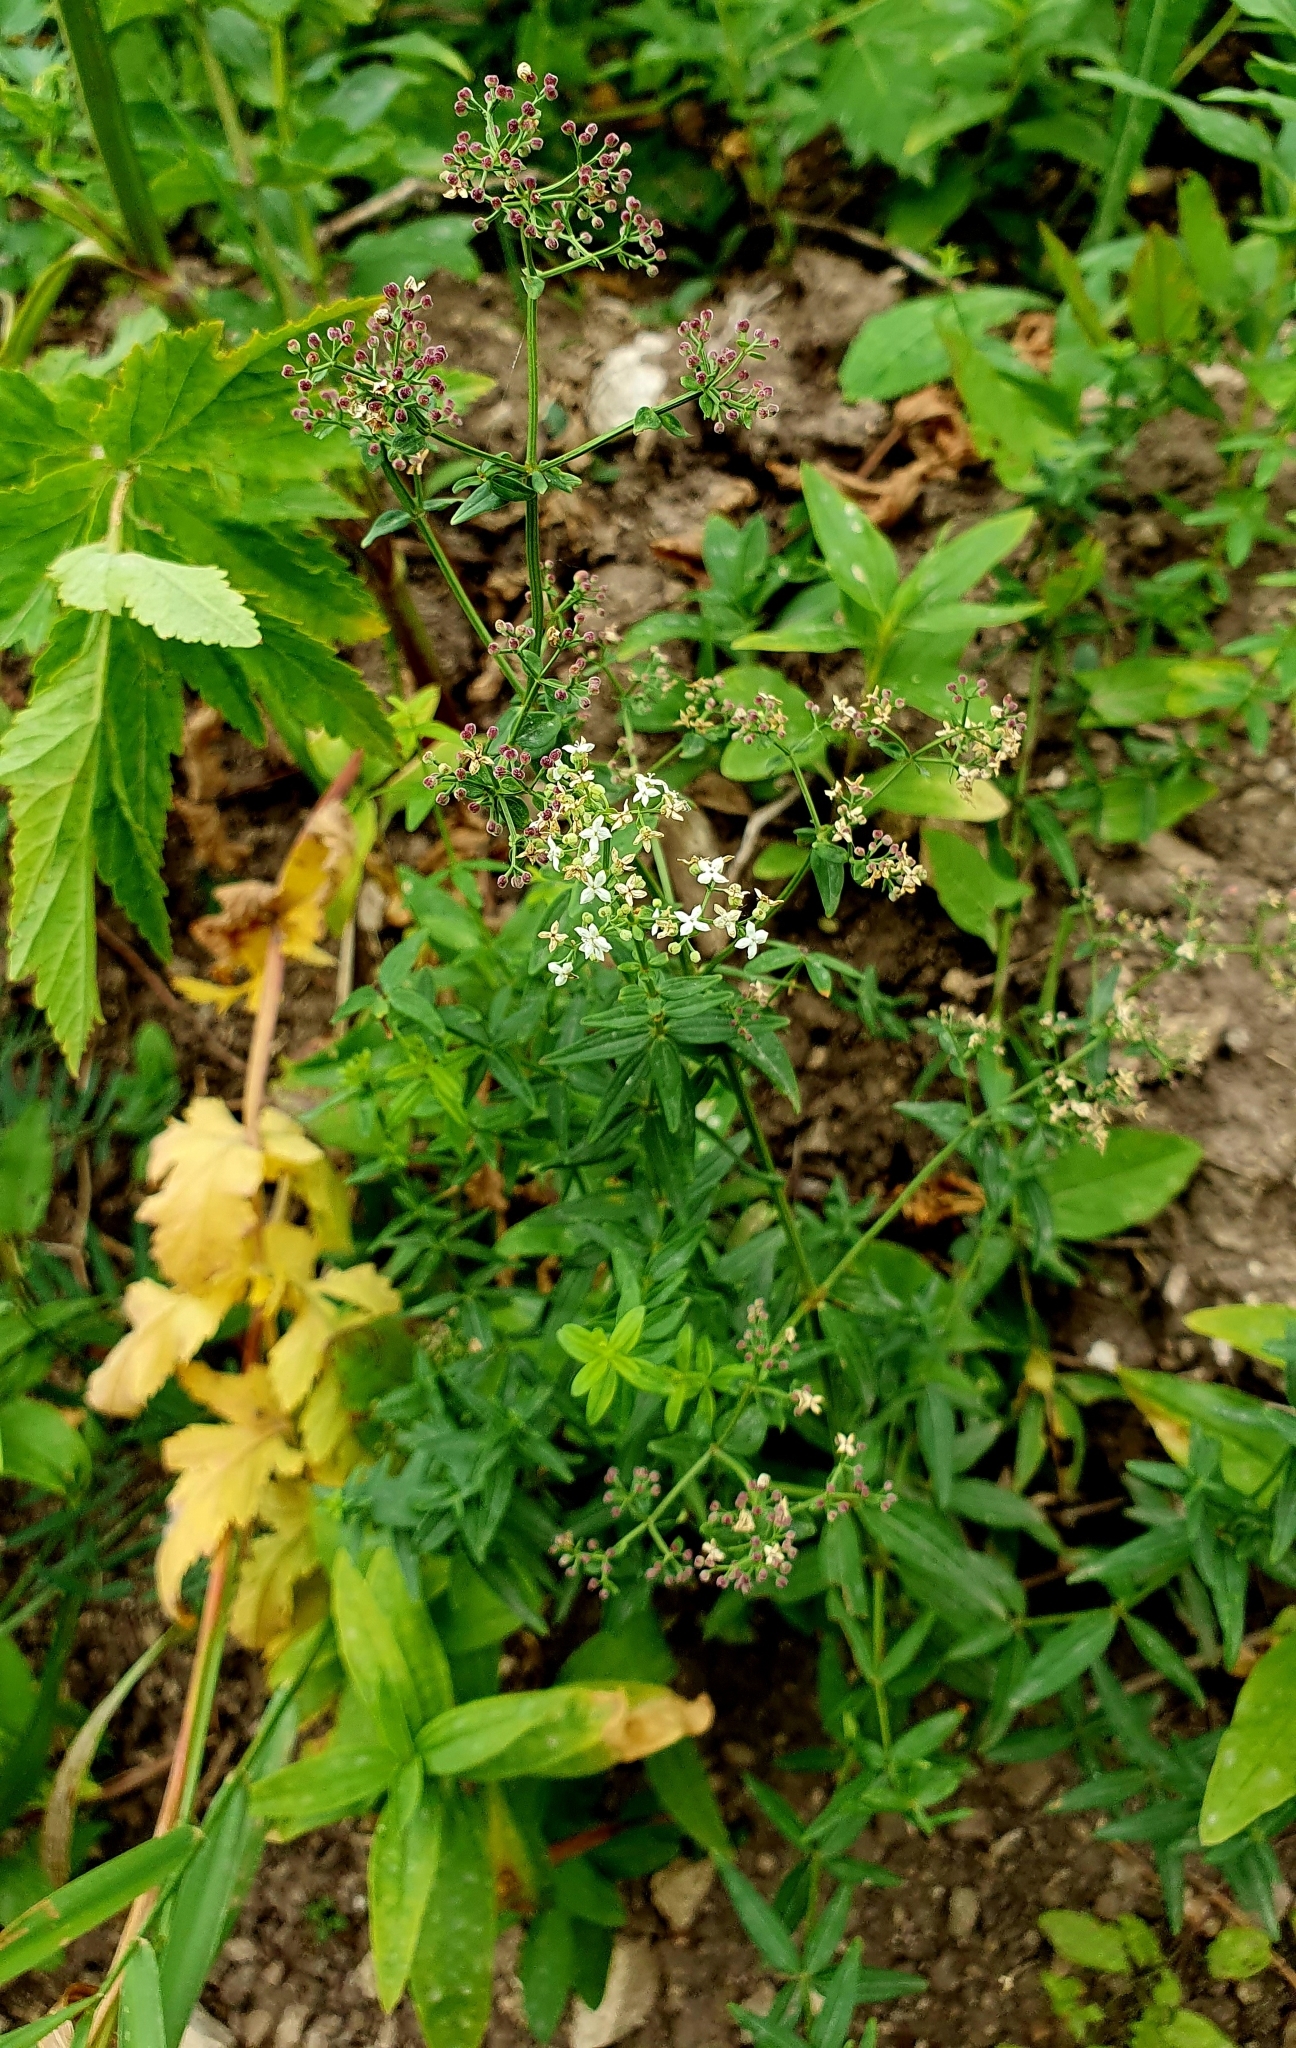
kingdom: Plantae
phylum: Tracheophyta
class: Magnoliopsida
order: Gentianales
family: Rubiaceae
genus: Galium
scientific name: Galium boreale
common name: Northern bedstraw
